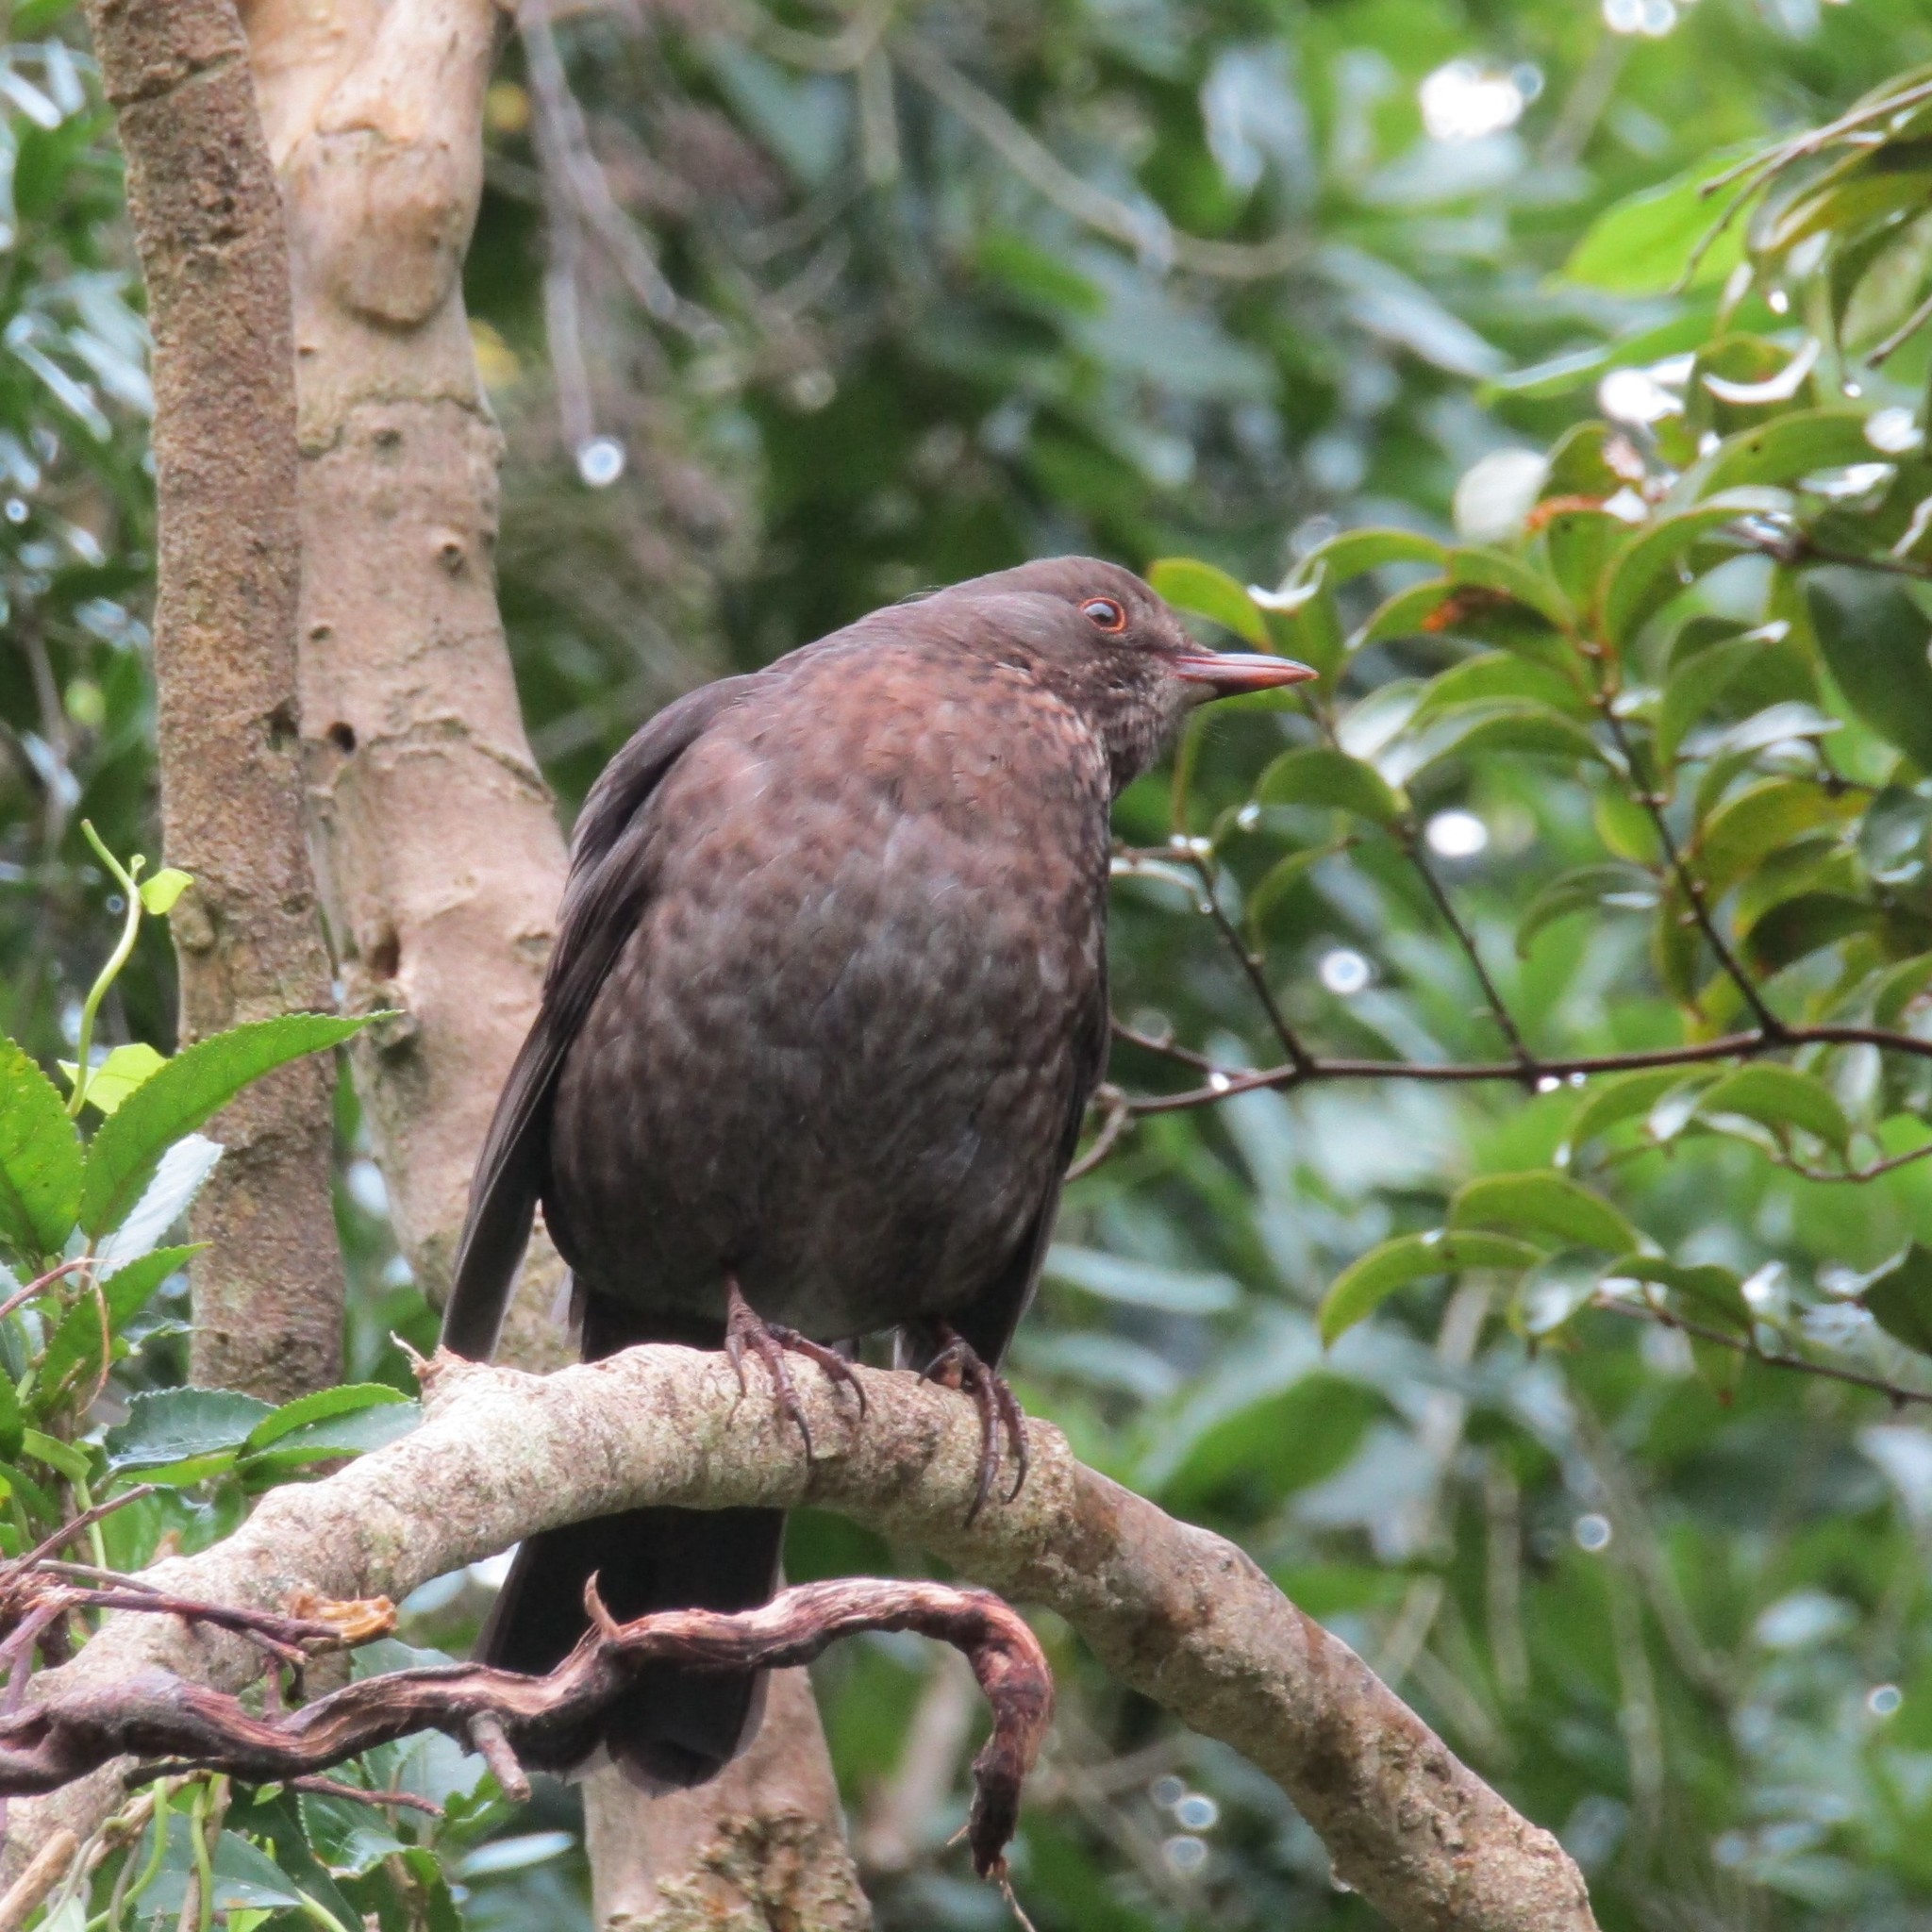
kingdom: Animalia
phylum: Chordata
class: Aves
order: Passeriformes
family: Turdidae
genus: Turdus
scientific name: Turdus merula
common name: Common blackbird
